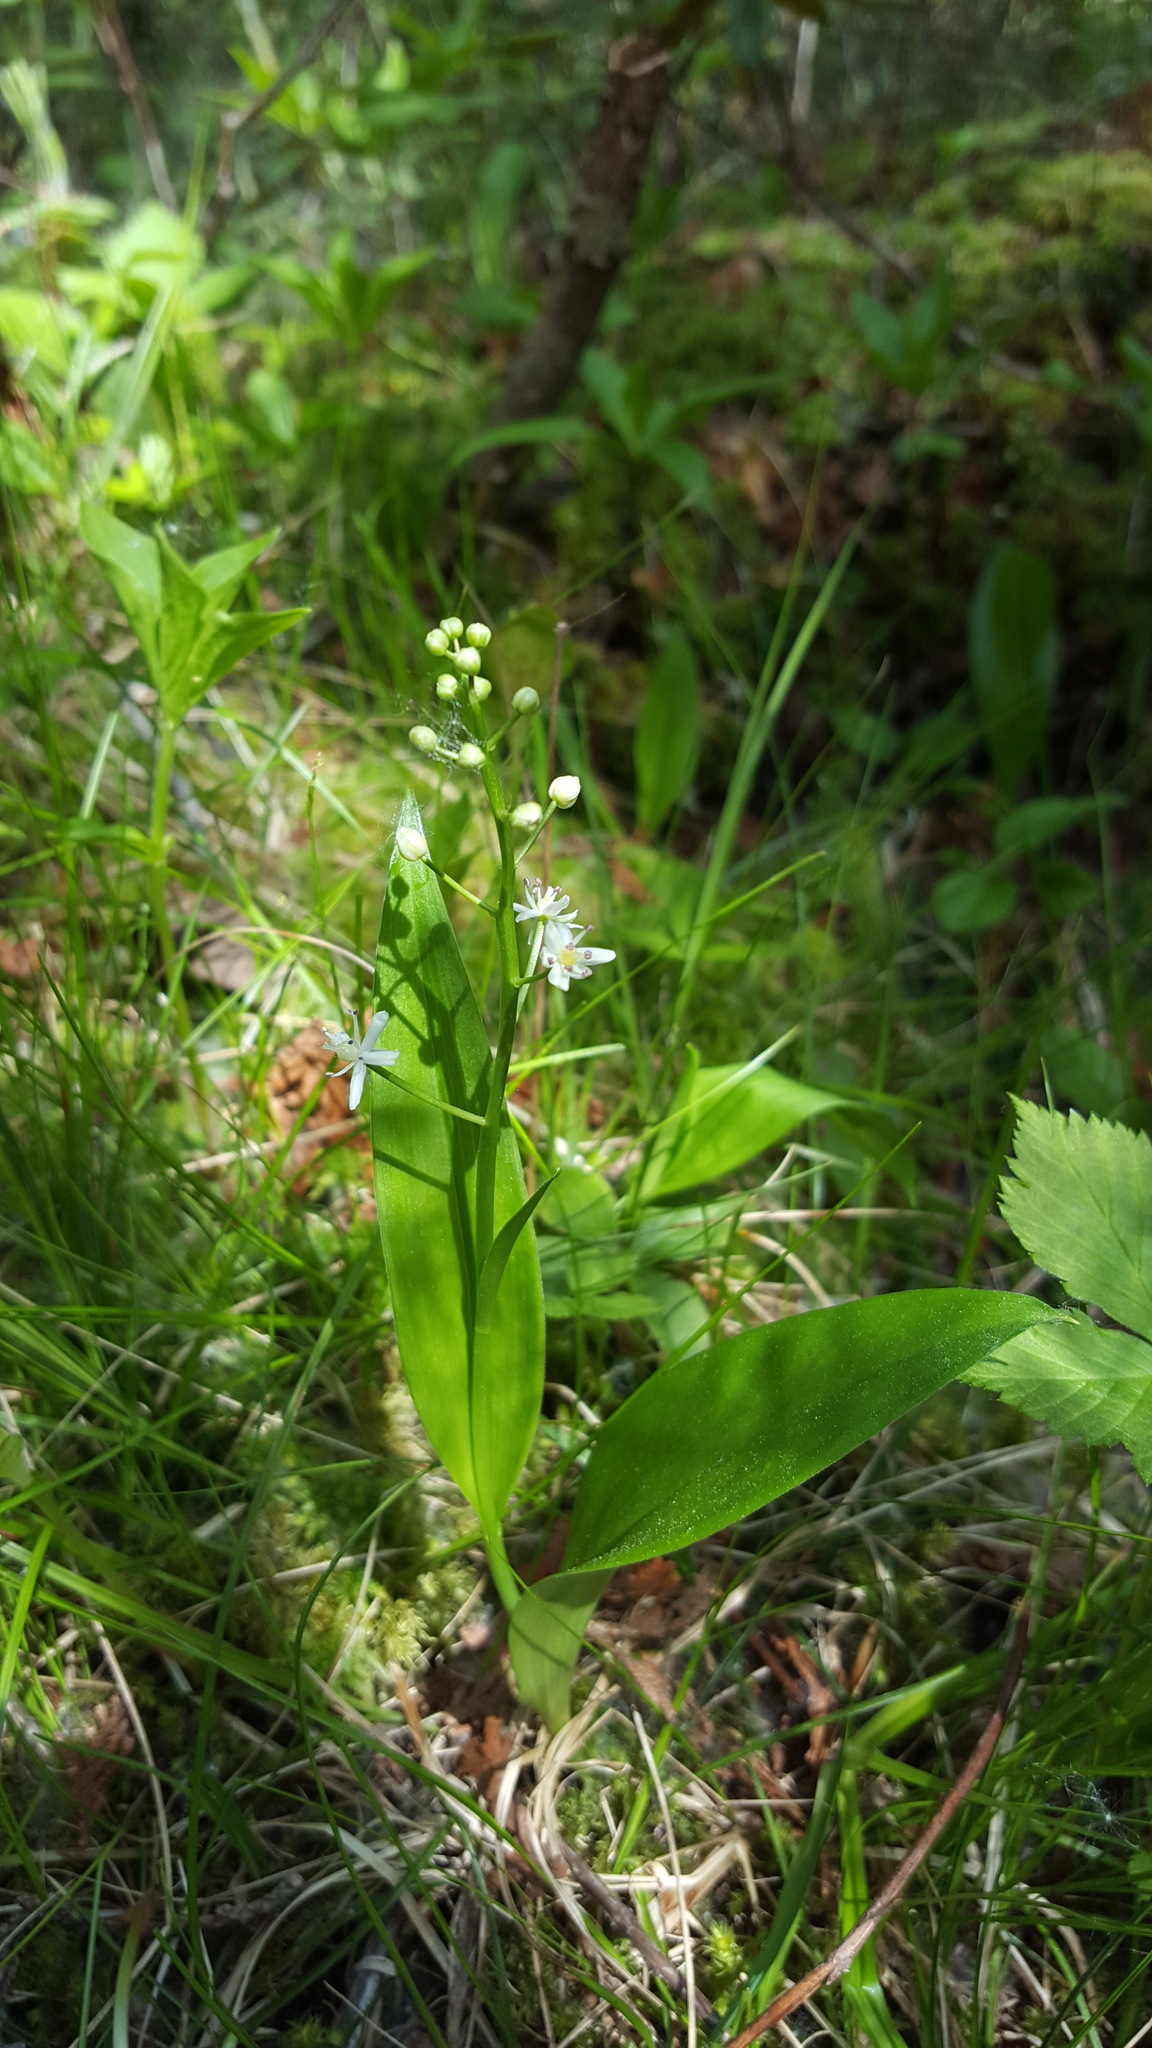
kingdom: Plantae
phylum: Tracheophyta
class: Liliopsida
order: Asparagales
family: Asparagaceae
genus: Maianthemum
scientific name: Maianthemum trifolium
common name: Swamp false solomon's seal
